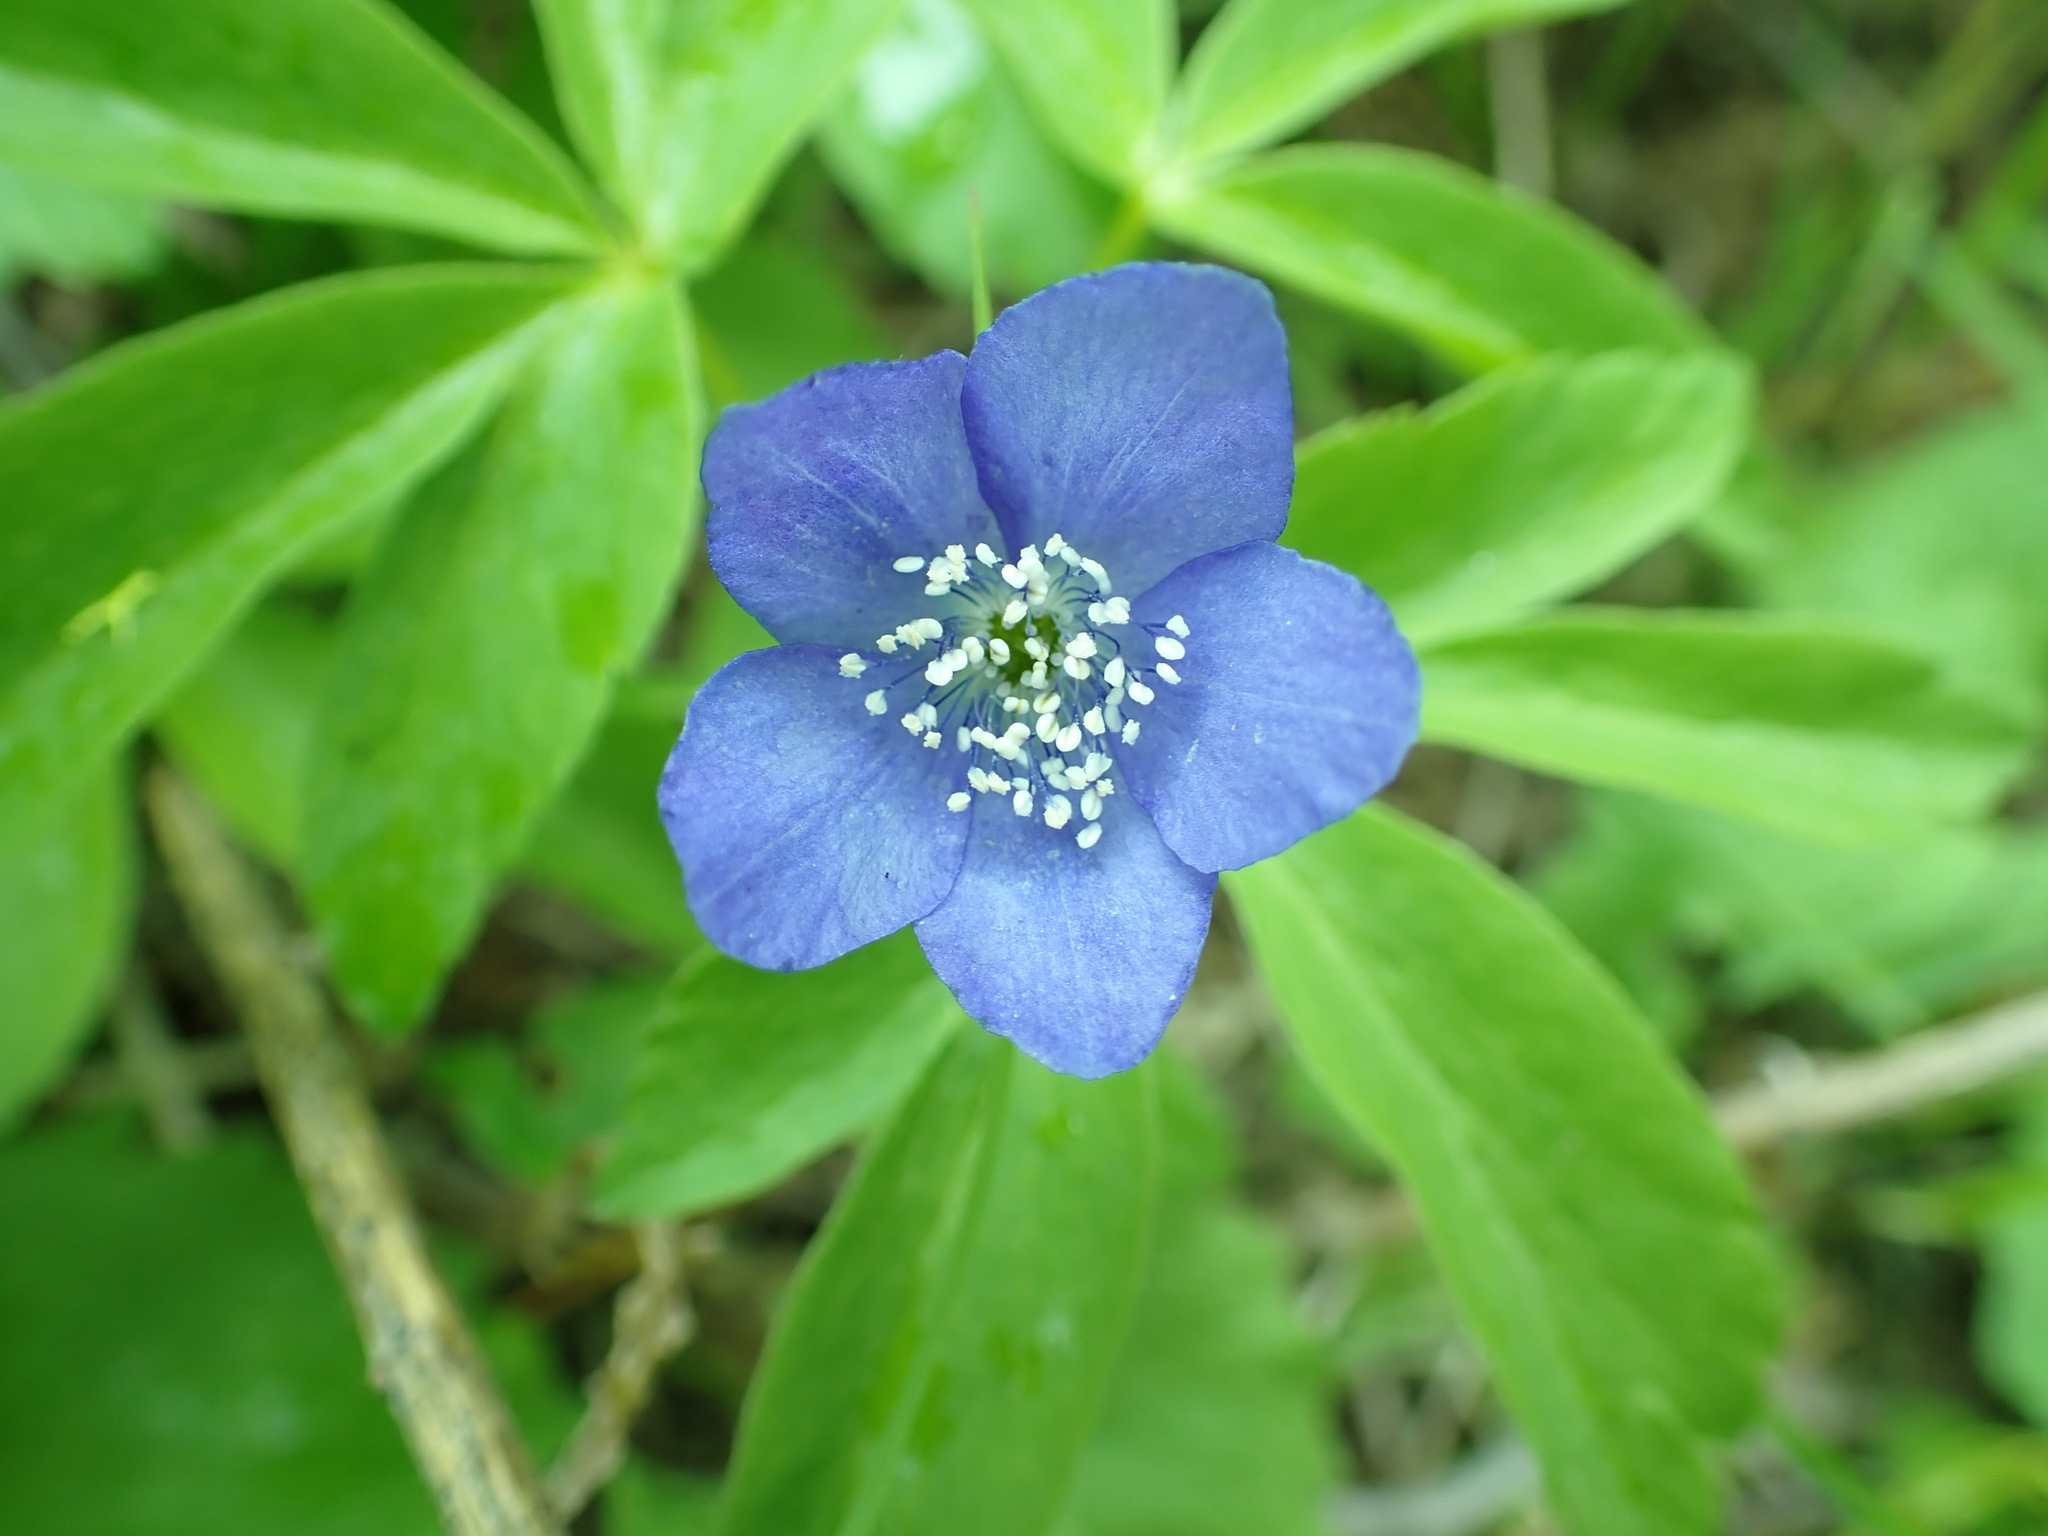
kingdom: Plantae
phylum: Tracheophyta
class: Magnoliopsida
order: Ranunculales
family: Ranunculaceae
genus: Anemone
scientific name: Anemone oregana
